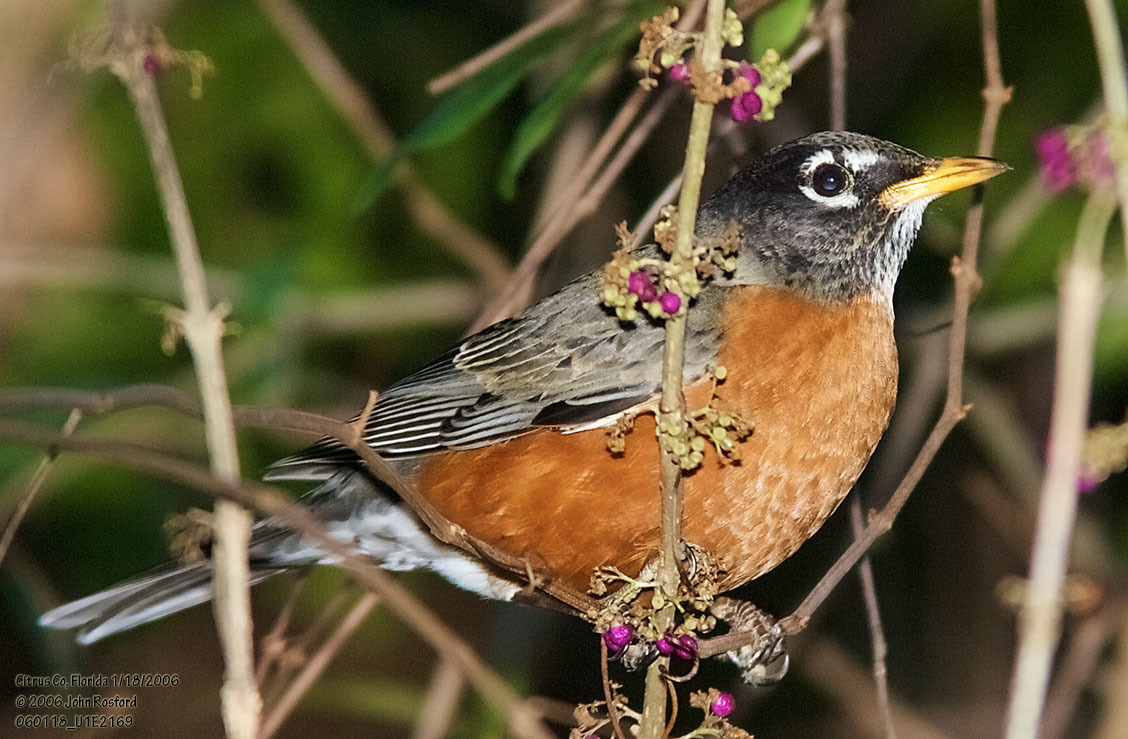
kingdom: Animalia
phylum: Chordata
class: Aves
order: Passeriformes
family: Turdidae
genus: Turdus
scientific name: Turdus migratorius
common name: American robin
